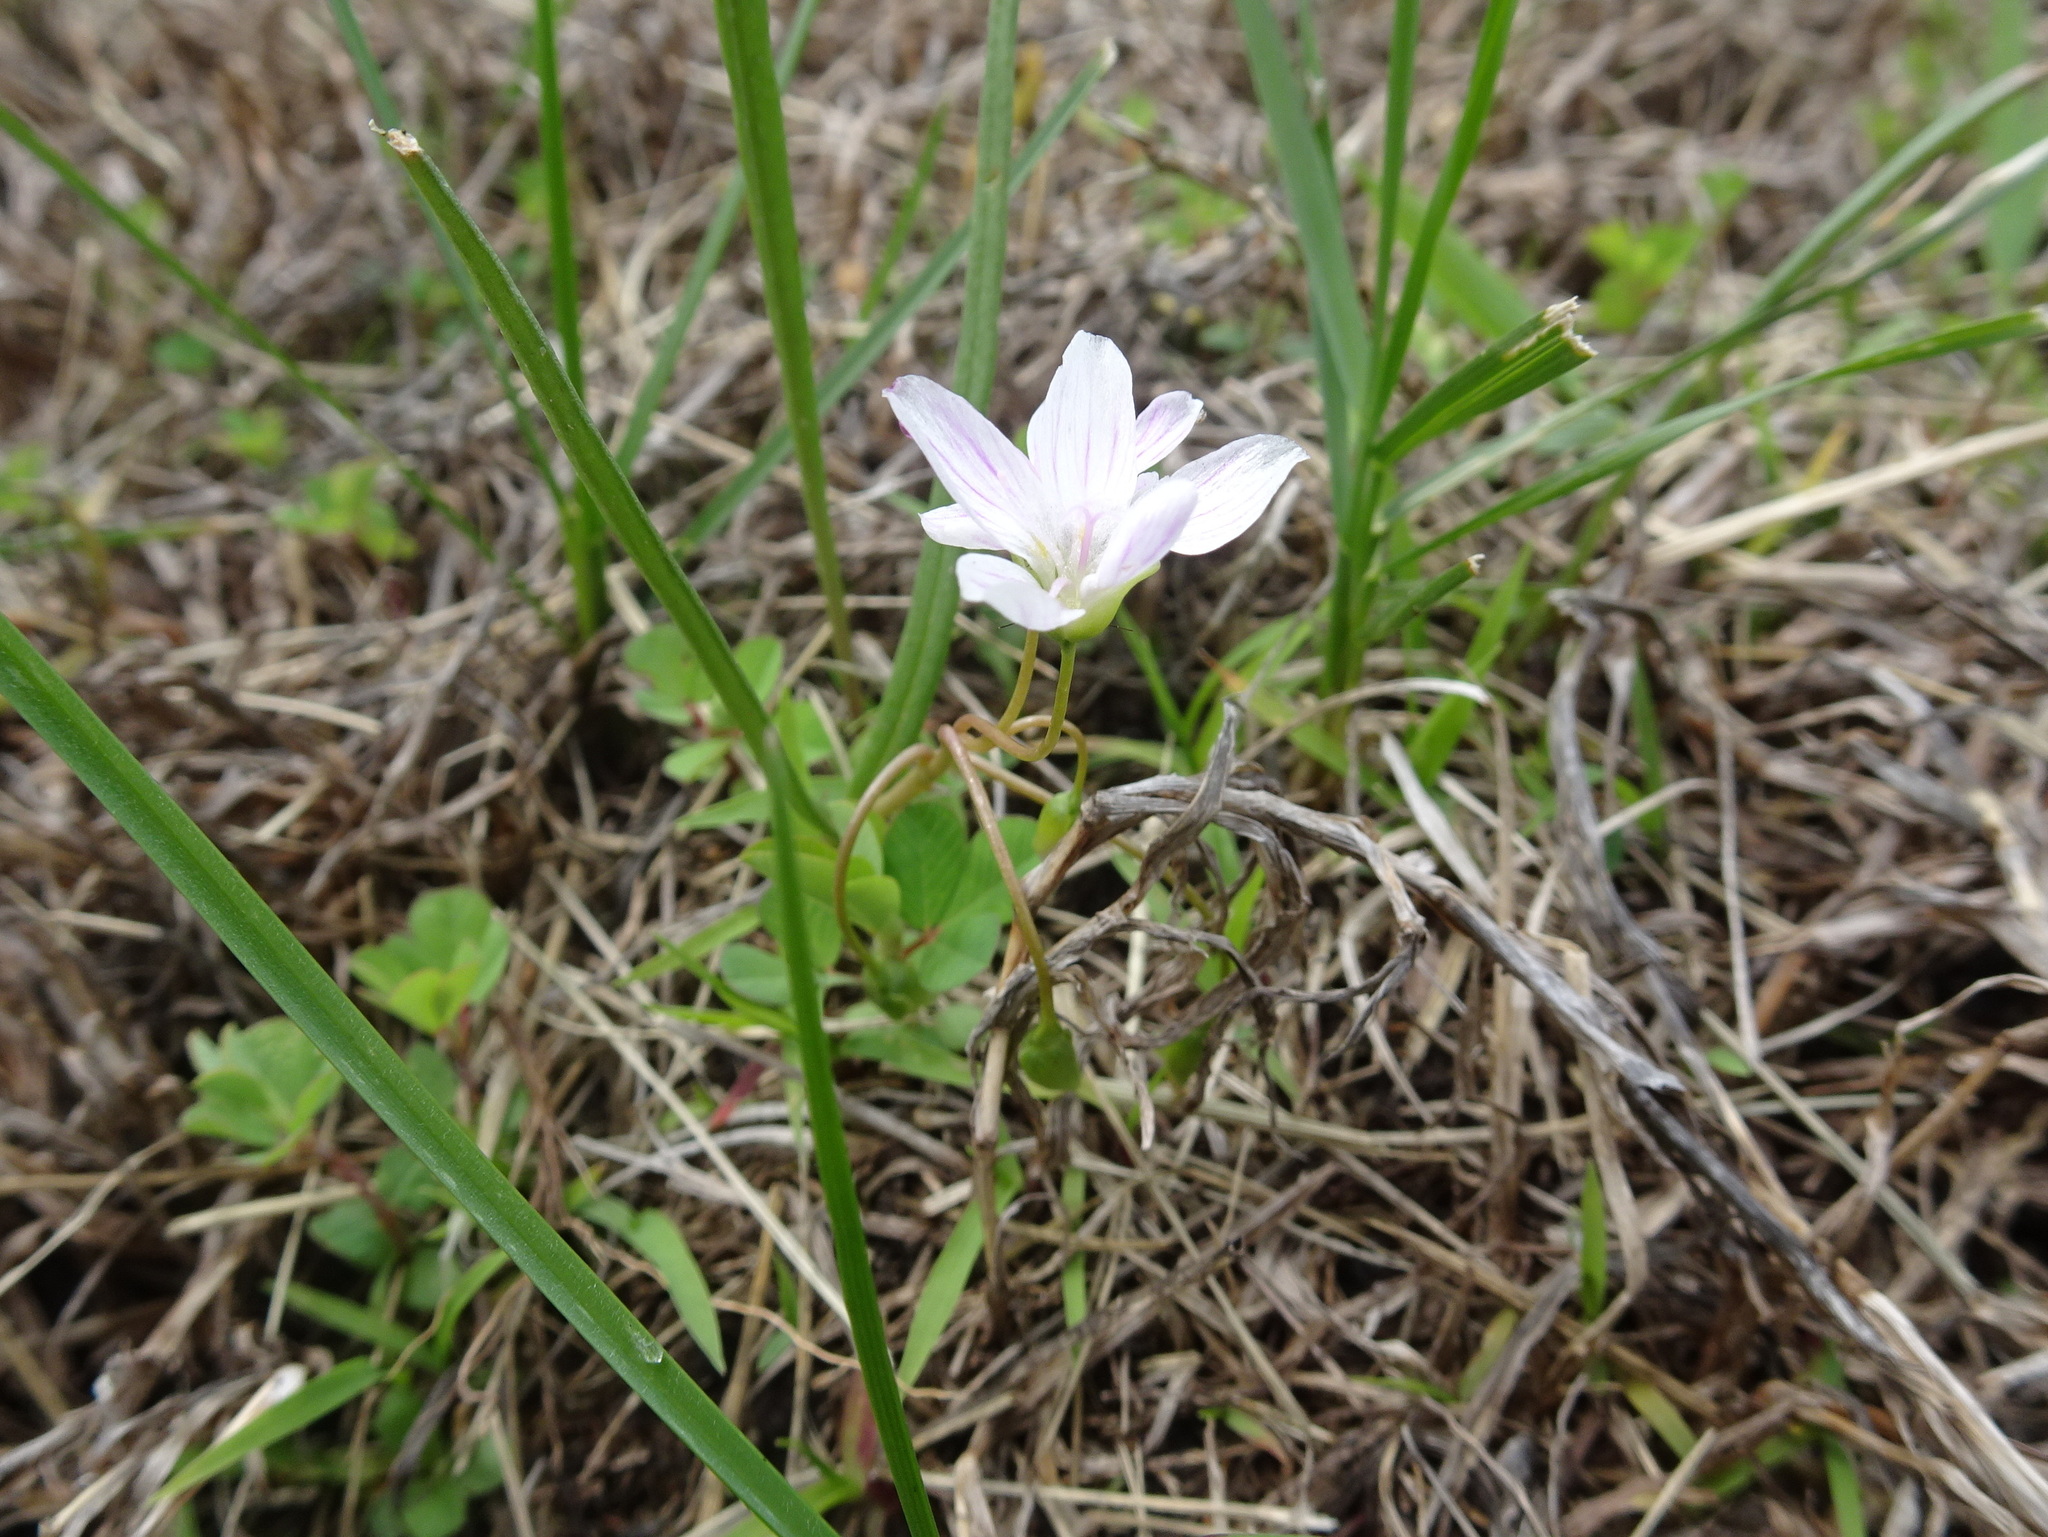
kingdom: Plantae
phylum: Tracheophyta
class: Magnoliopsida
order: Caryophyllales
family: Montiaceae
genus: Claytonia
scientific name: Claytonia virginica
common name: Virginia springbeauty
